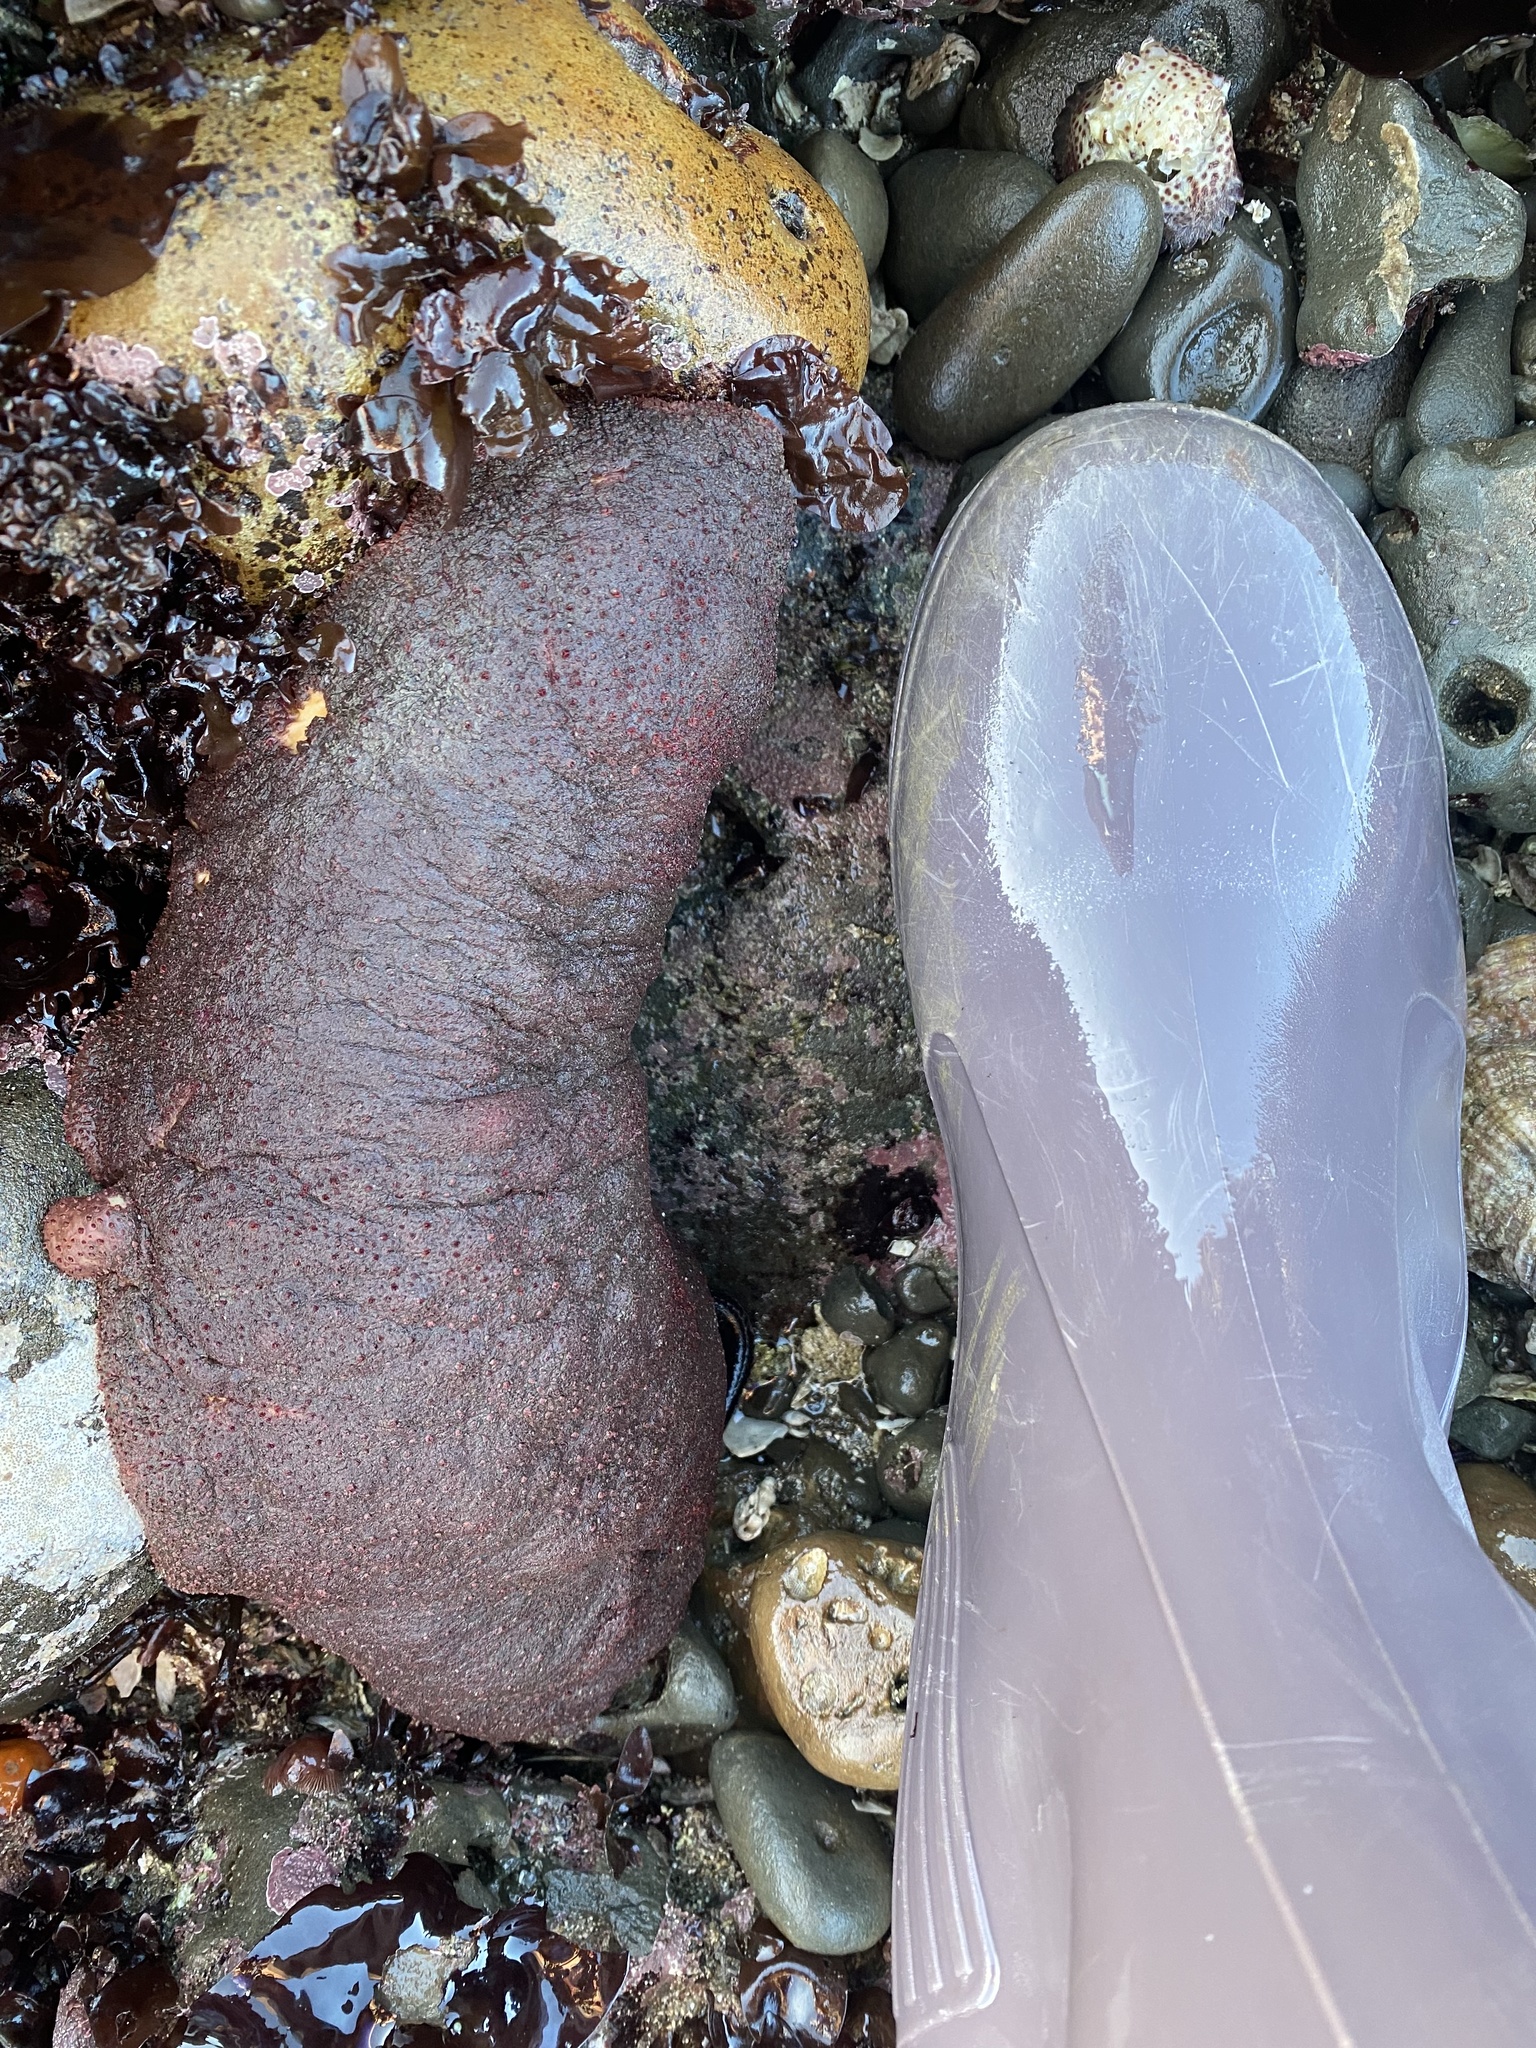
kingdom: Animalia
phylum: Mollusca
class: Polyplacophora
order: Chitonida
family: Acanthochitonidae
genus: Cryptochiton
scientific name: Cryptochiton stelleri
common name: Giant pacific chiton
